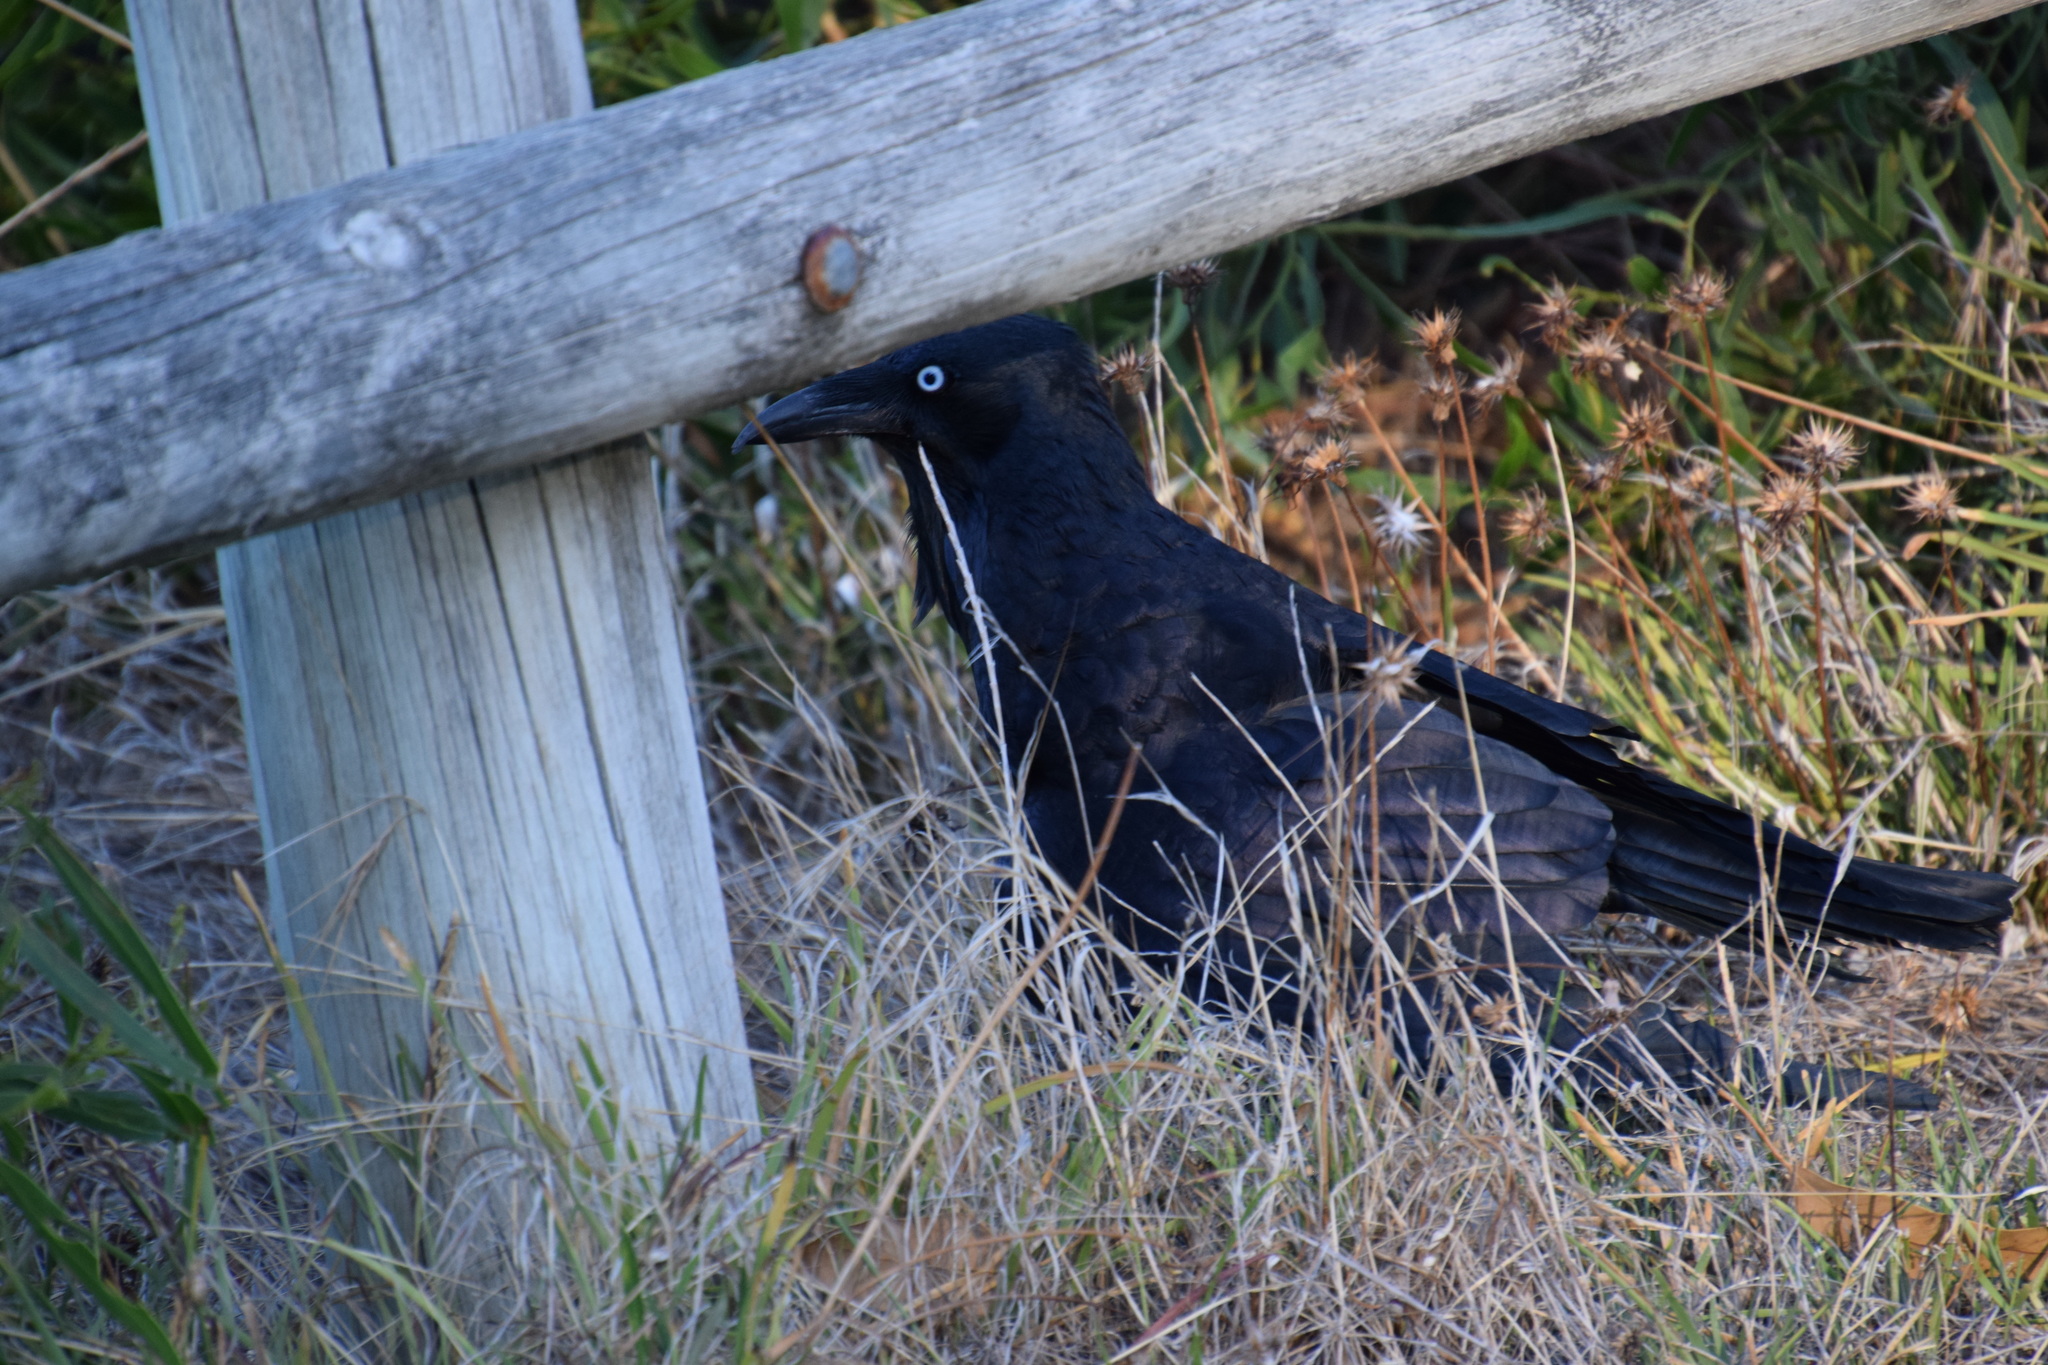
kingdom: Animalia
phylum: Chordata
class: Aves
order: Passeriformes
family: Corvidae
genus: Corvus
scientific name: Corvus coronoides
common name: Australian raven
